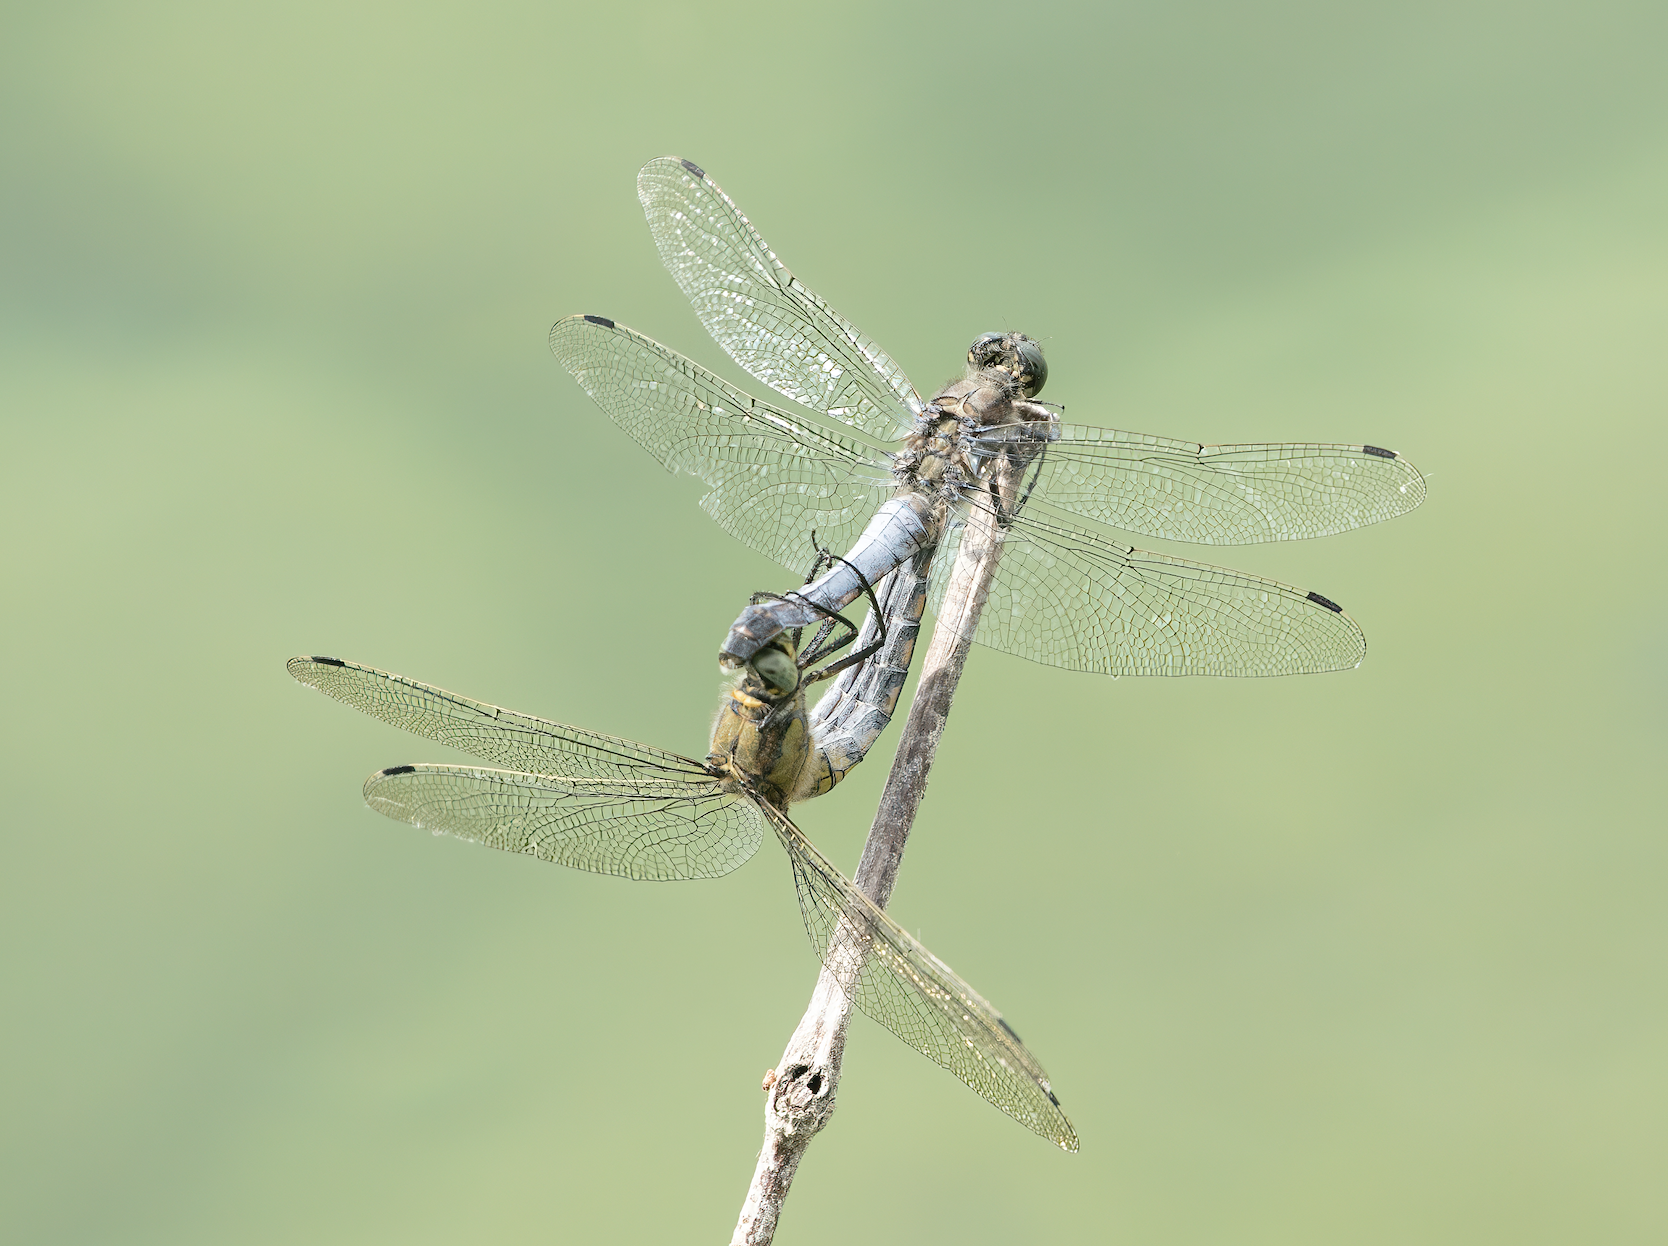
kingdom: Animalia
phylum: Arthropoda
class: Insecta
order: Odonata
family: Libellulidae
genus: Orthetrum
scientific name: Orthetrum cancellatum
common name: Black-tailed skimmer
